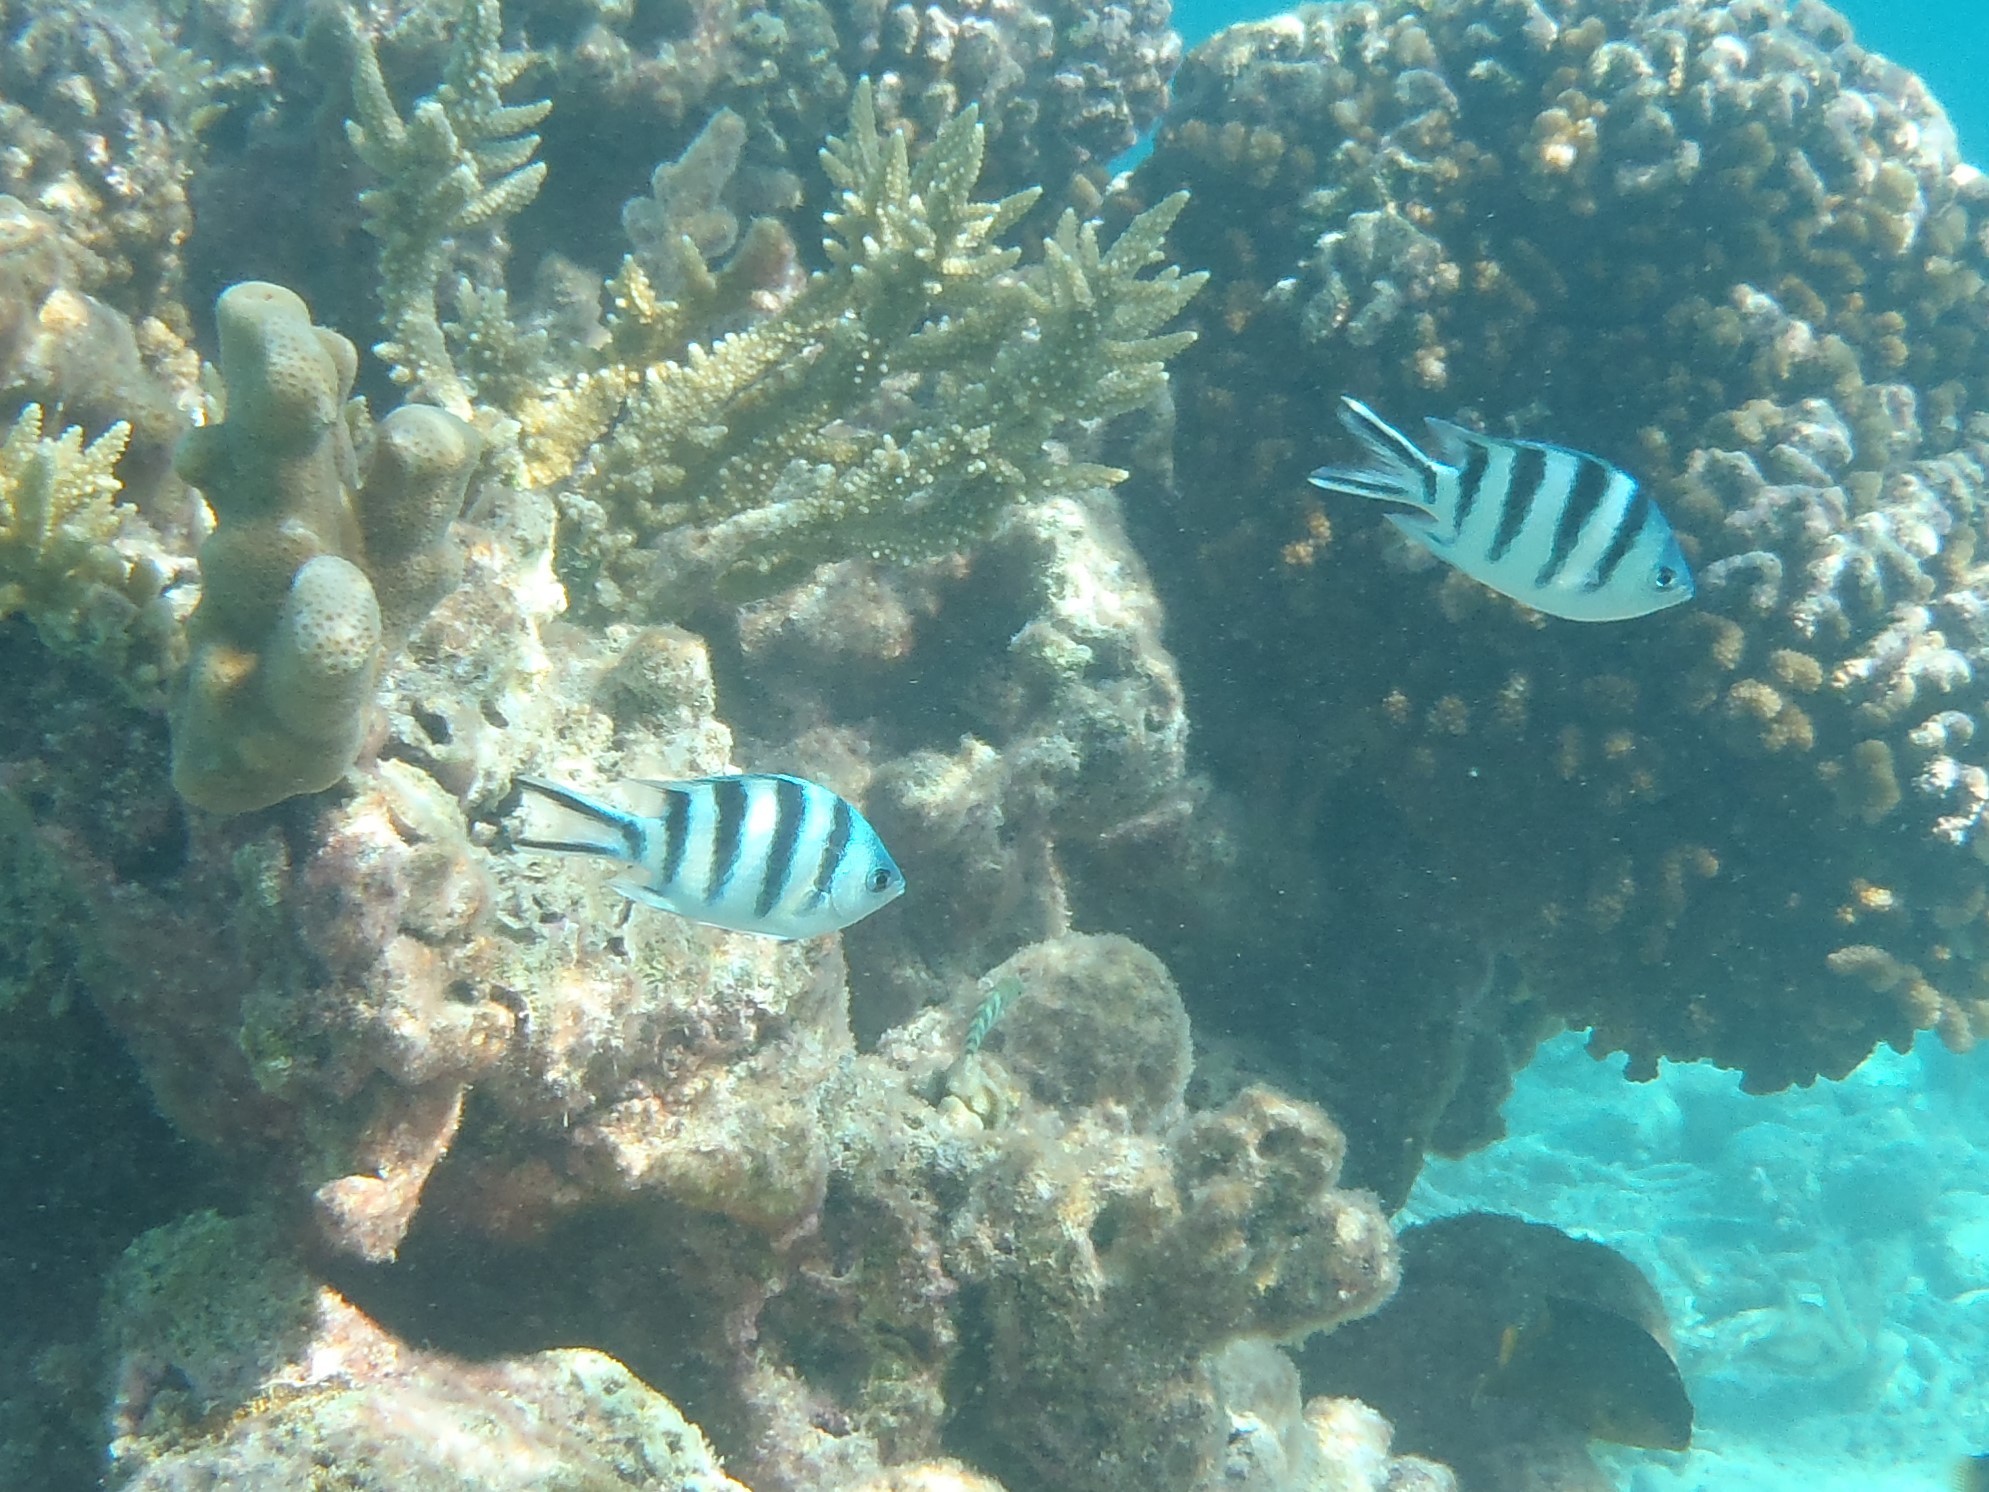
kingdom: Animalia
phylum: Chordata
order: Perciformes
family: Pomacentridae
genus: Abudefduf
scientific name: Abudefduf sexfasciatus
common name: Scissortail sergeant
